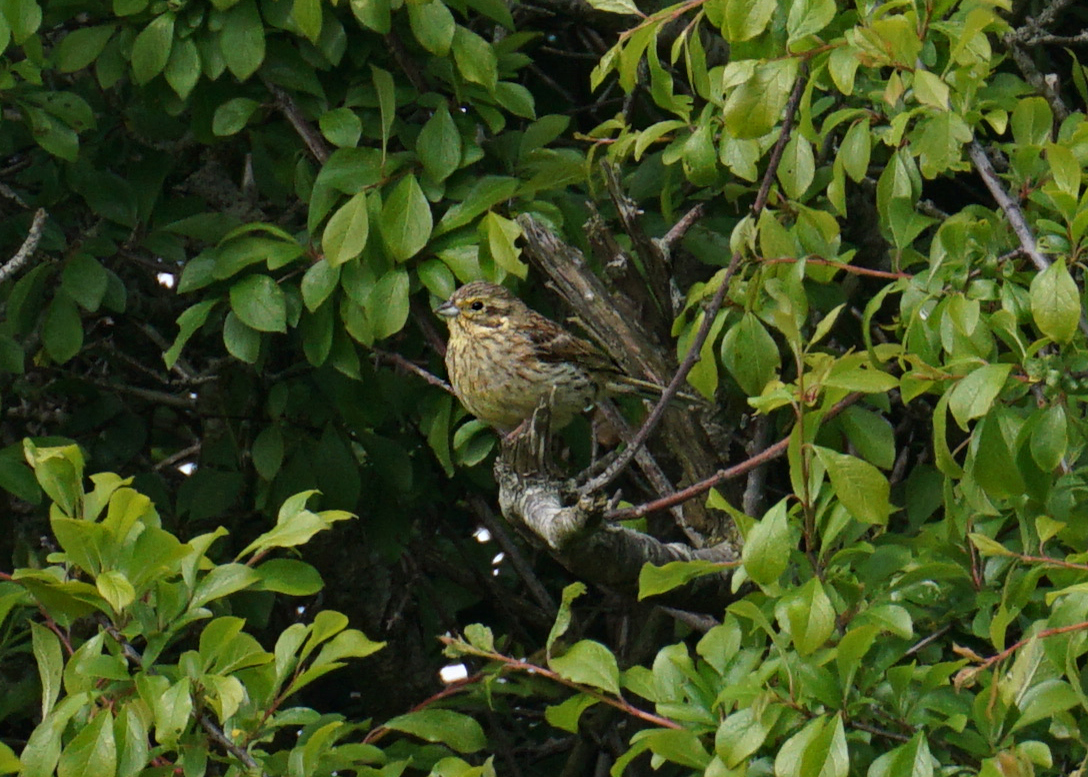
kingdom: Animalia
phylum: Chordata
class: Aves
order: Passeriformes
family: Emberizidae
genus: Emberiza
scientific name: Emberiza cirlus
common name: Cirl bunting
